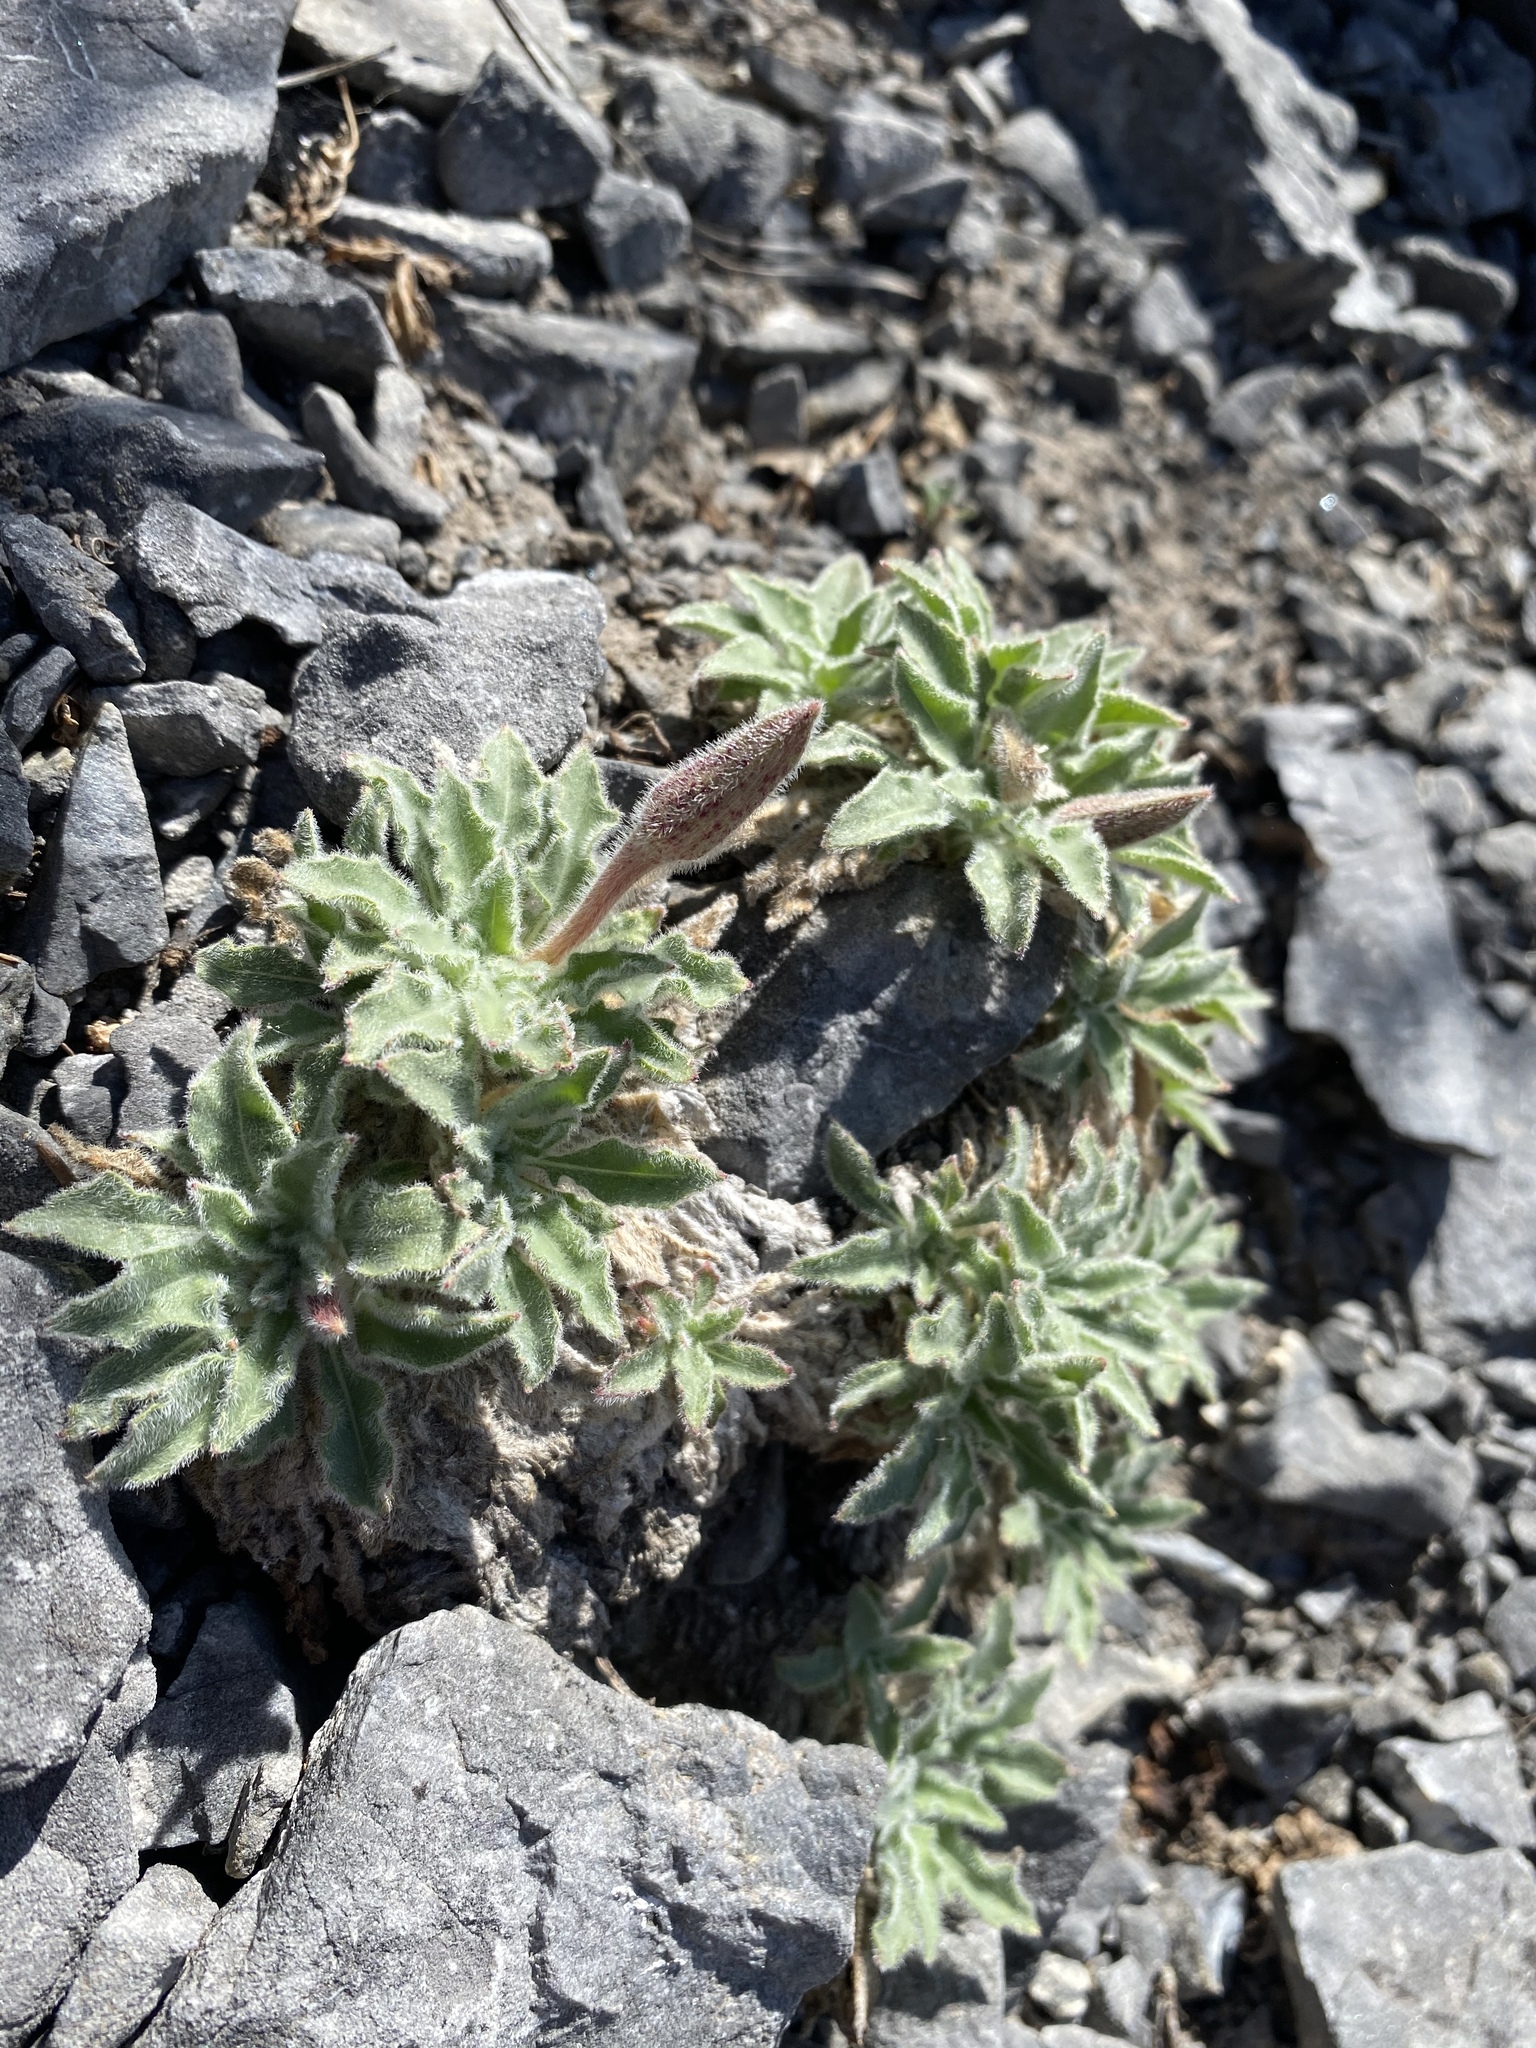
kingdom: Plantae
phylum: Tracheophyta
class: Magnoliopsida
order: Myrtales
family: Onagraceae
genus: Oenothera
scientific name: Oenothera cespitosa
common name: Tufted evening-primrose
